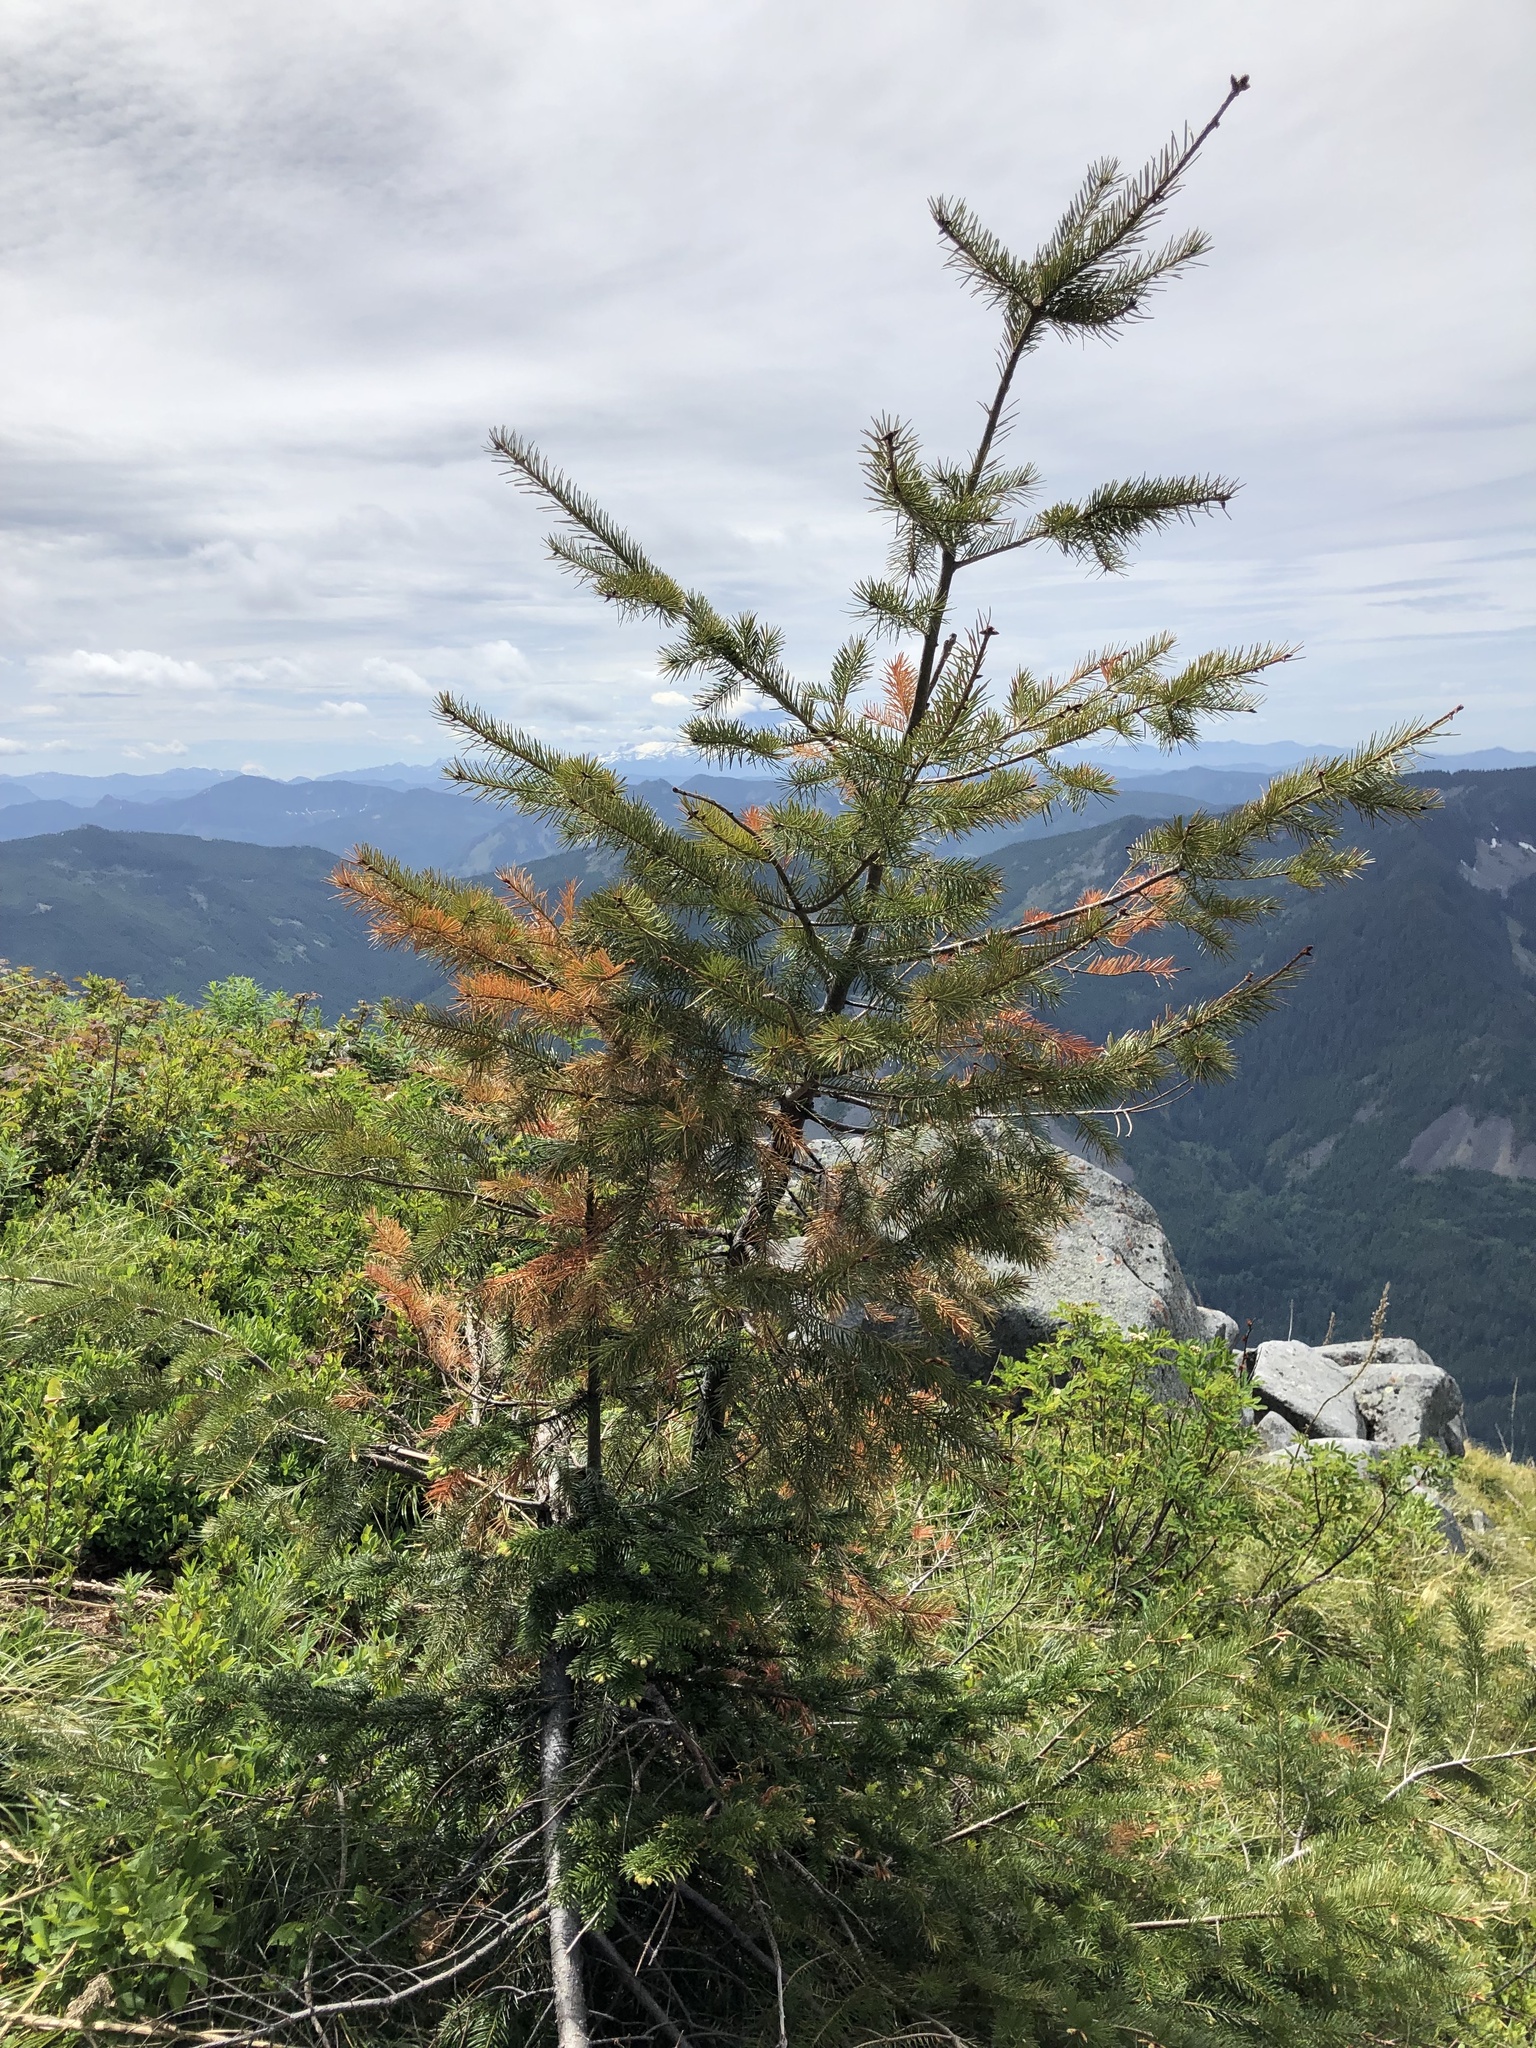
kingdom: Plantae
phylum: Tracheophyta
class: Pinopsida
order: Pinales
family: Pinaceae
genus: Pseudotsuga
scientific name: Pseudotsuga menziesii
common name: Douglas fir
